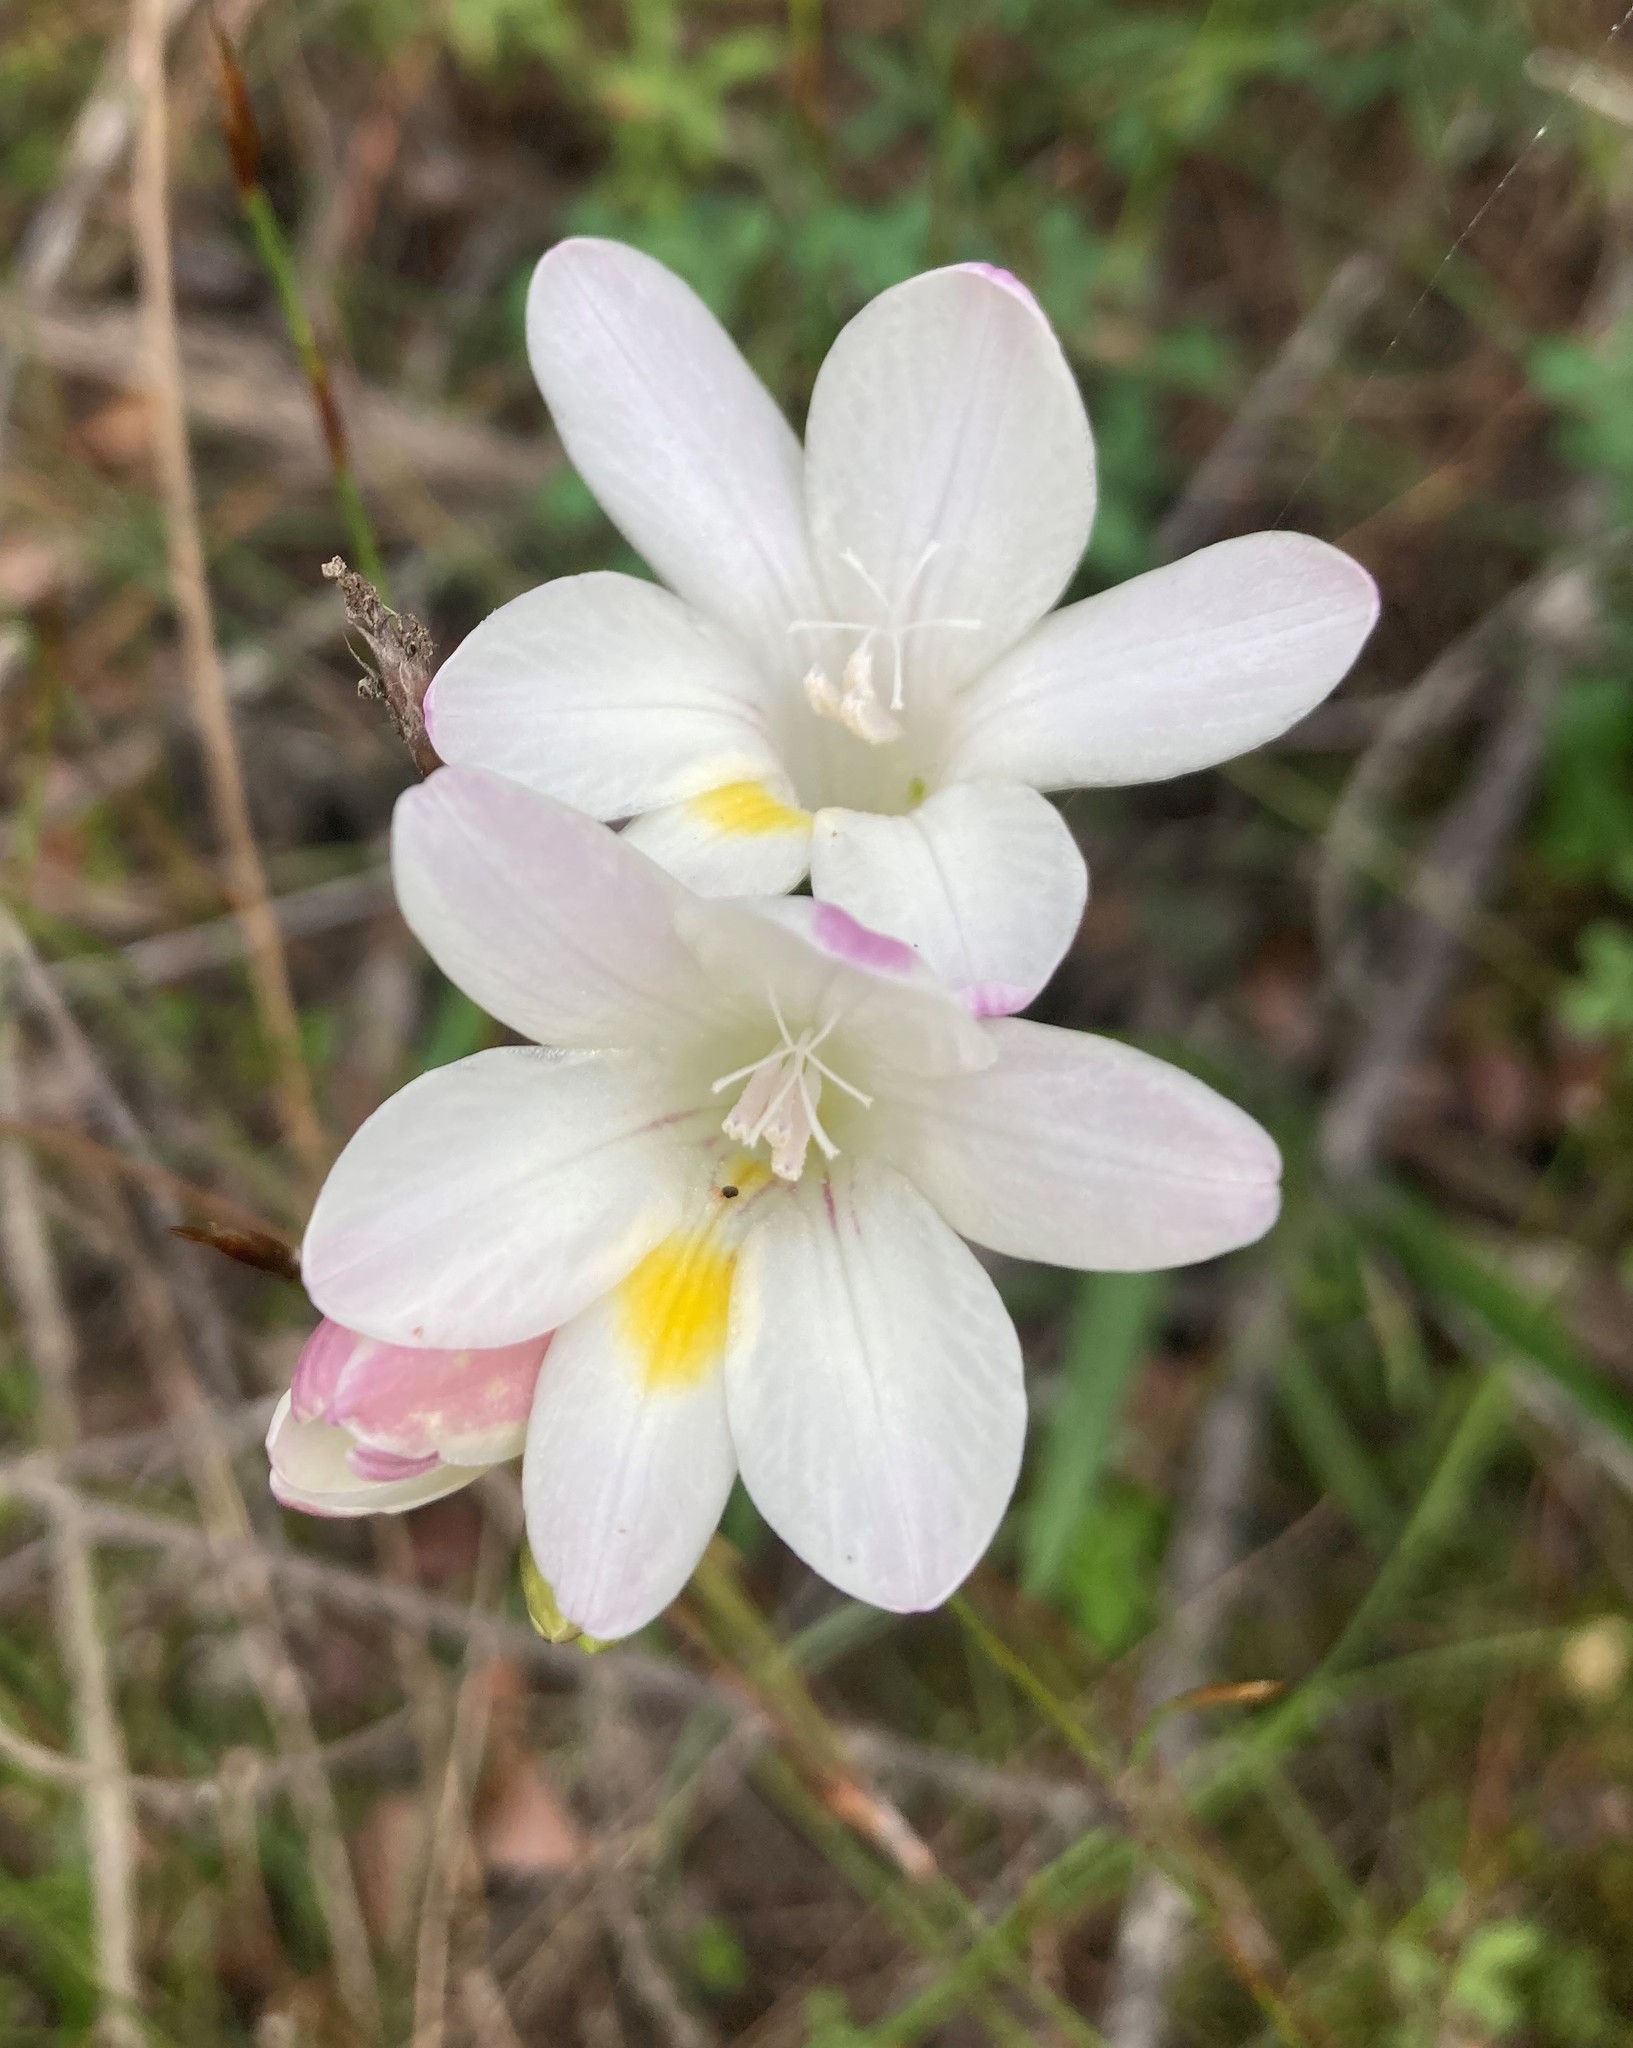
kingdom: Plantae
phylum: Tracheophyta
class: Liliopsida
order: Asparagales
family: Iridaceae
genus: Freesia
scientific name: Freesia leichtlinii
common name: Freesia
